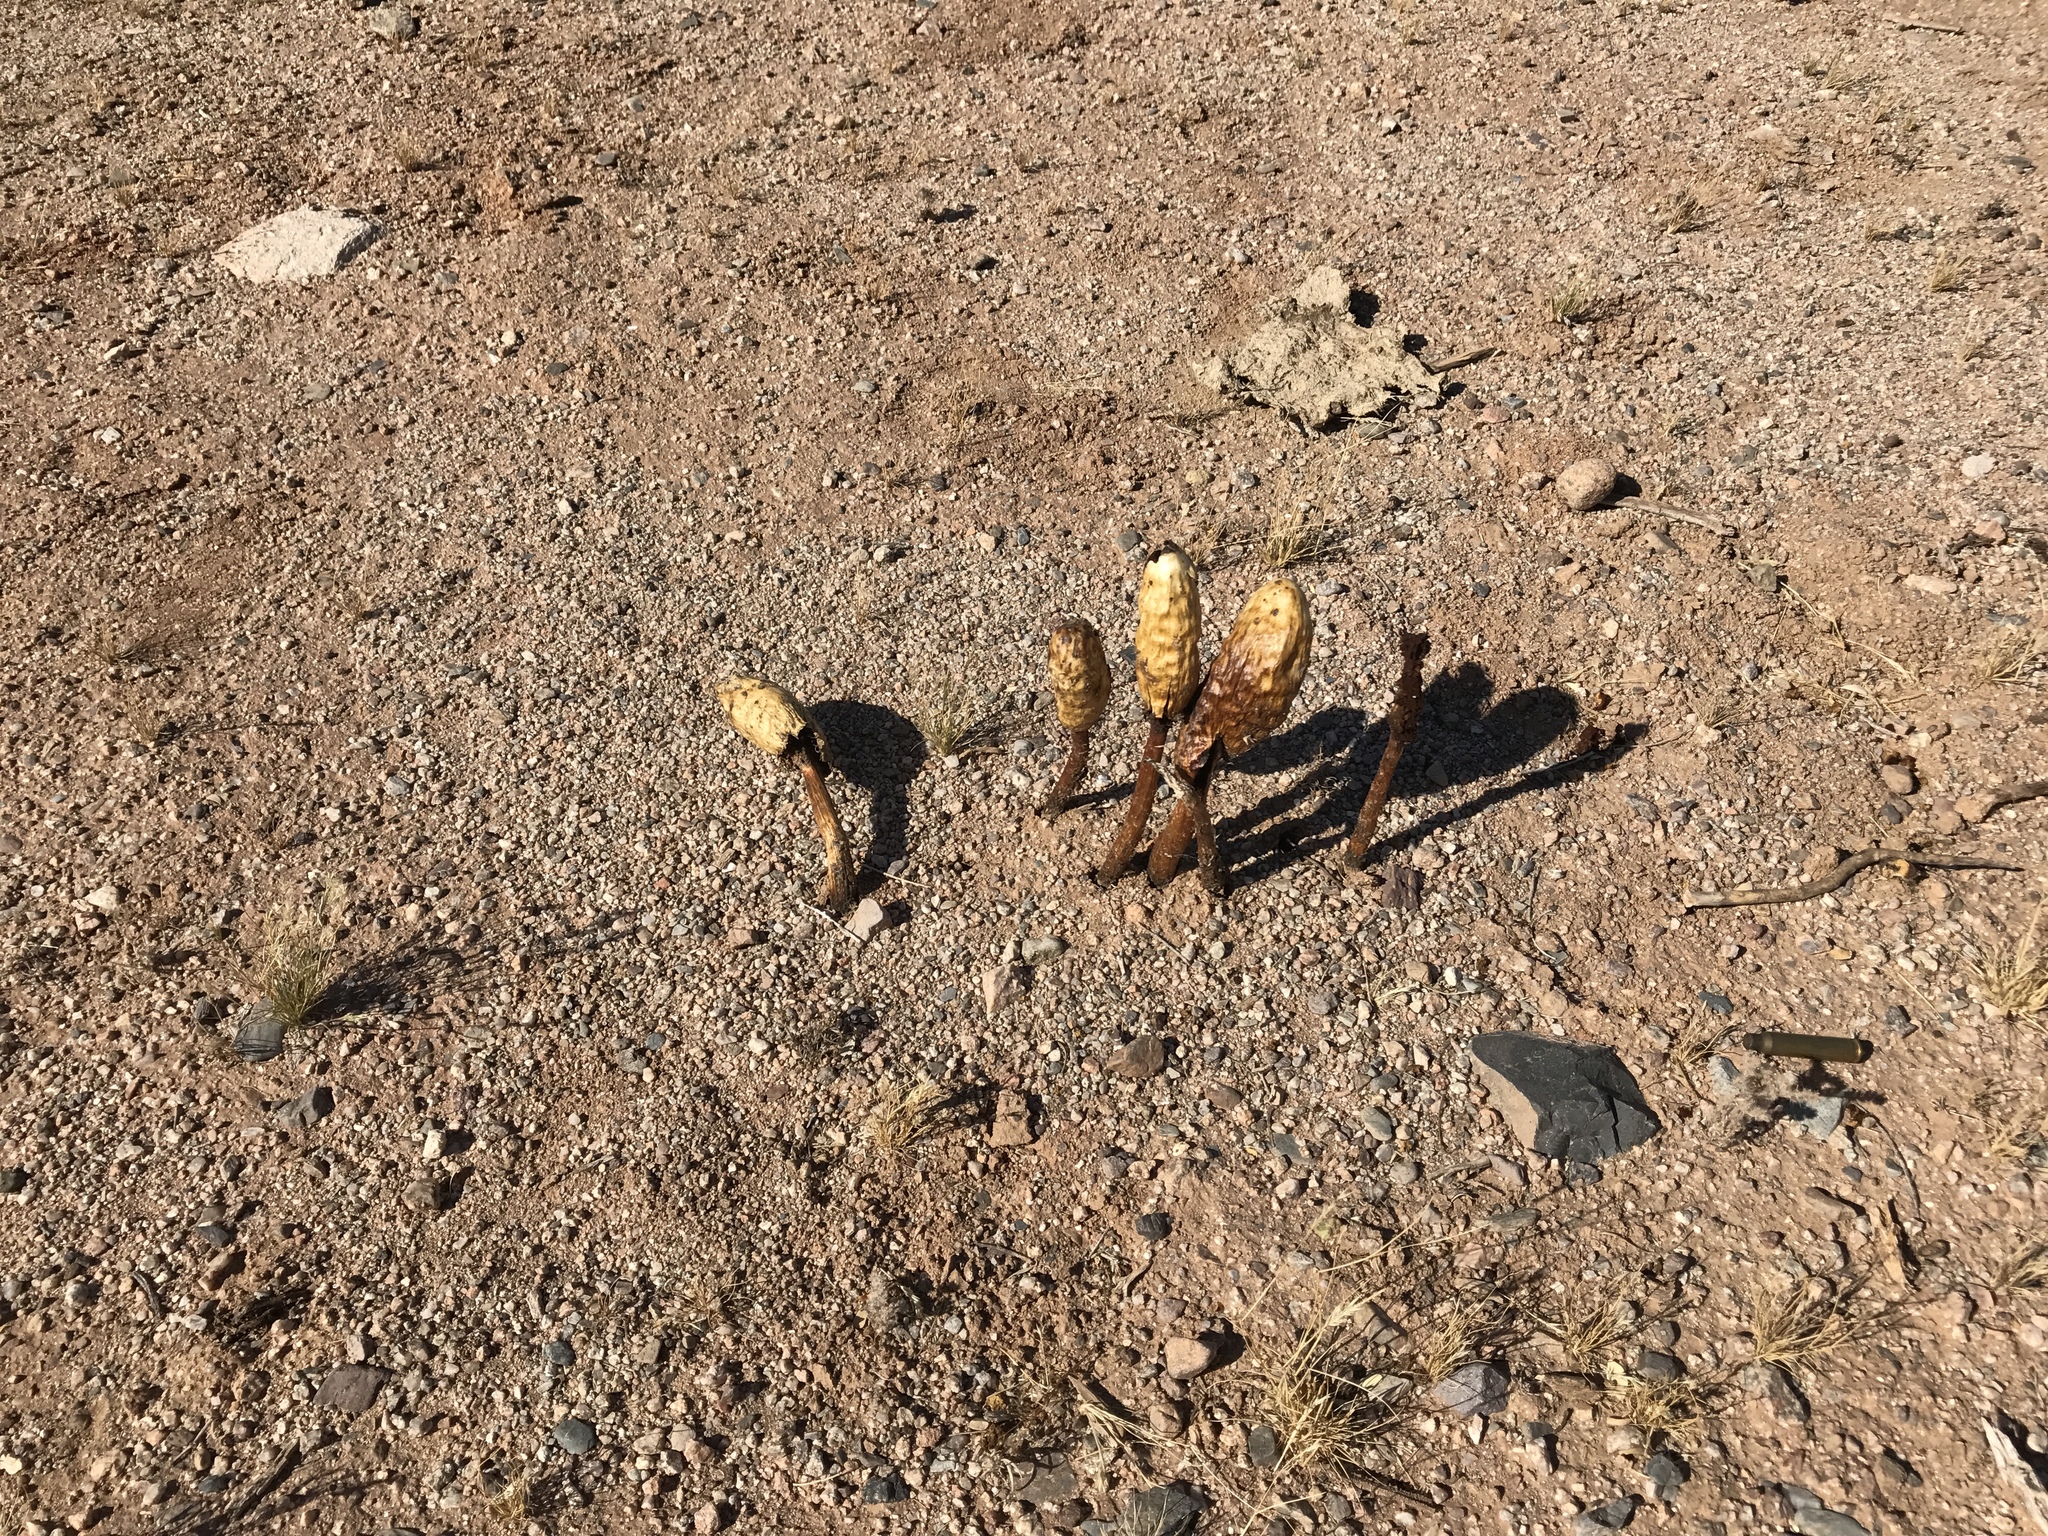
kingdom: Fungi
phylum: Basidiomycota
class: Agaricomycetes
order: Agaricales
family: Agaricaceae
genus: Podaxis
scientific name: Podaxis pistillaris
